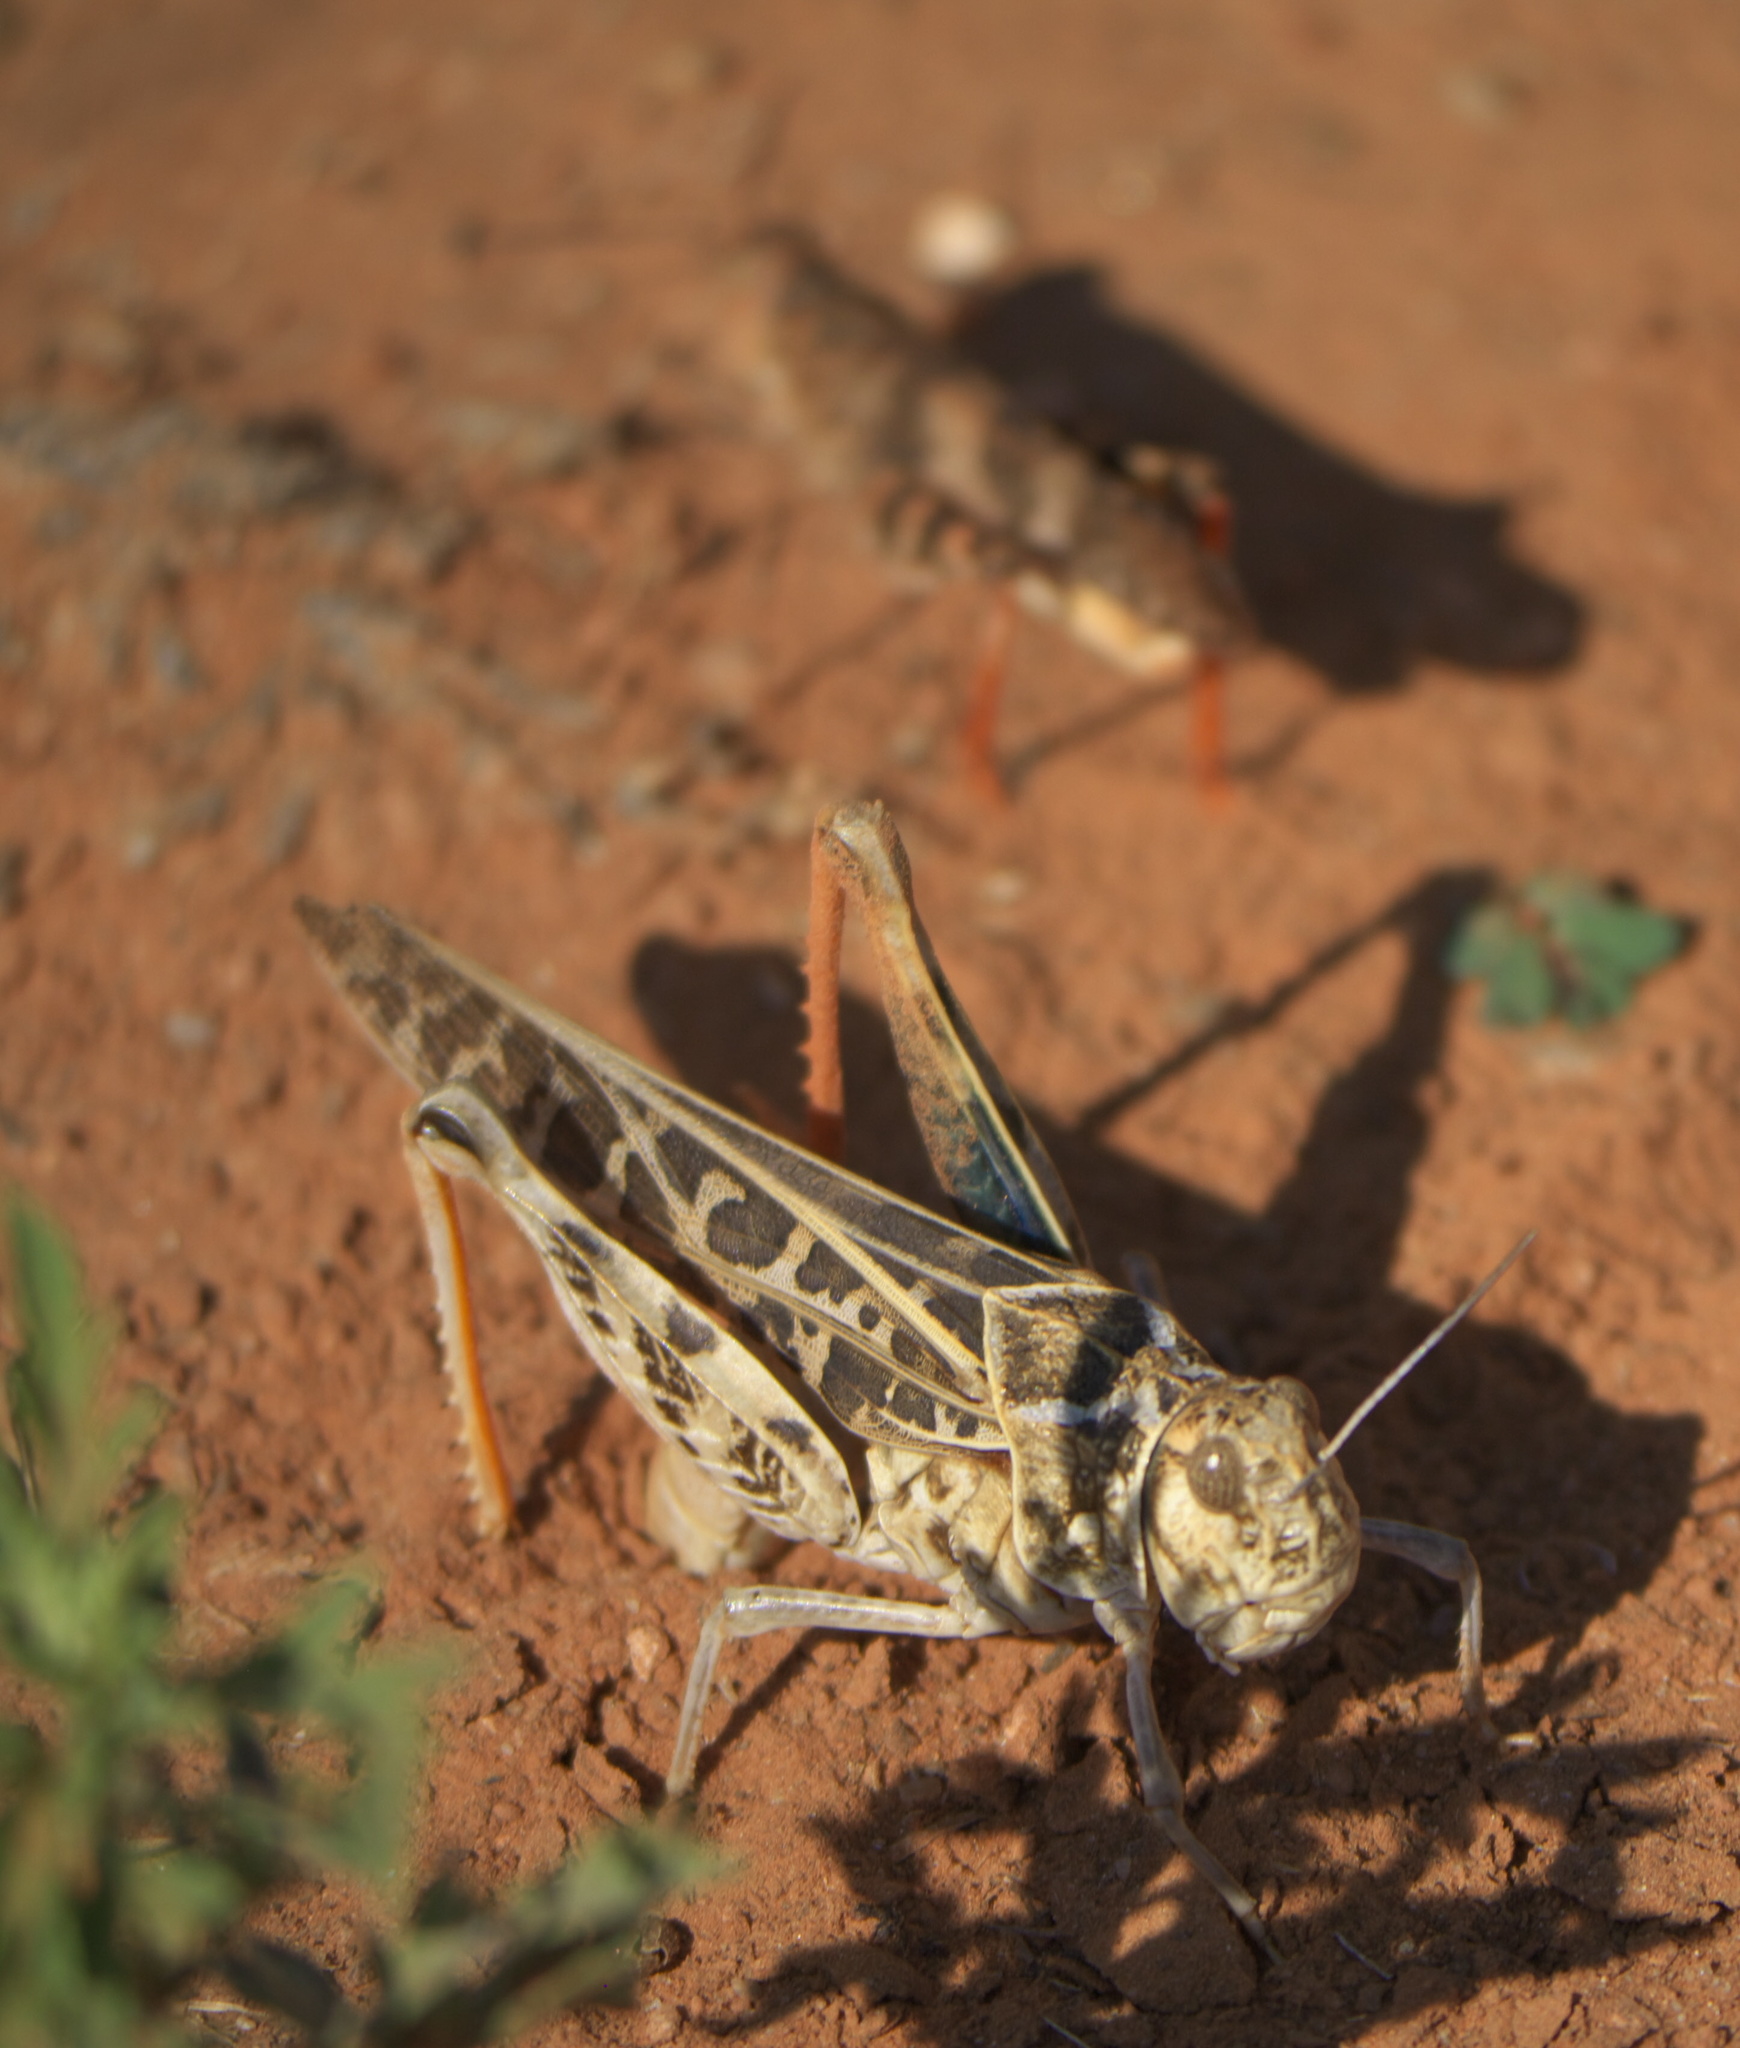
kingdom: Animalia
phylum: Arthropoda
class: Insecta
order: Orthoptera
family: Acrididae
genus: Xanthippus
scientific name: Xanthippus corallipes
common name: Redshanked grasshopper
